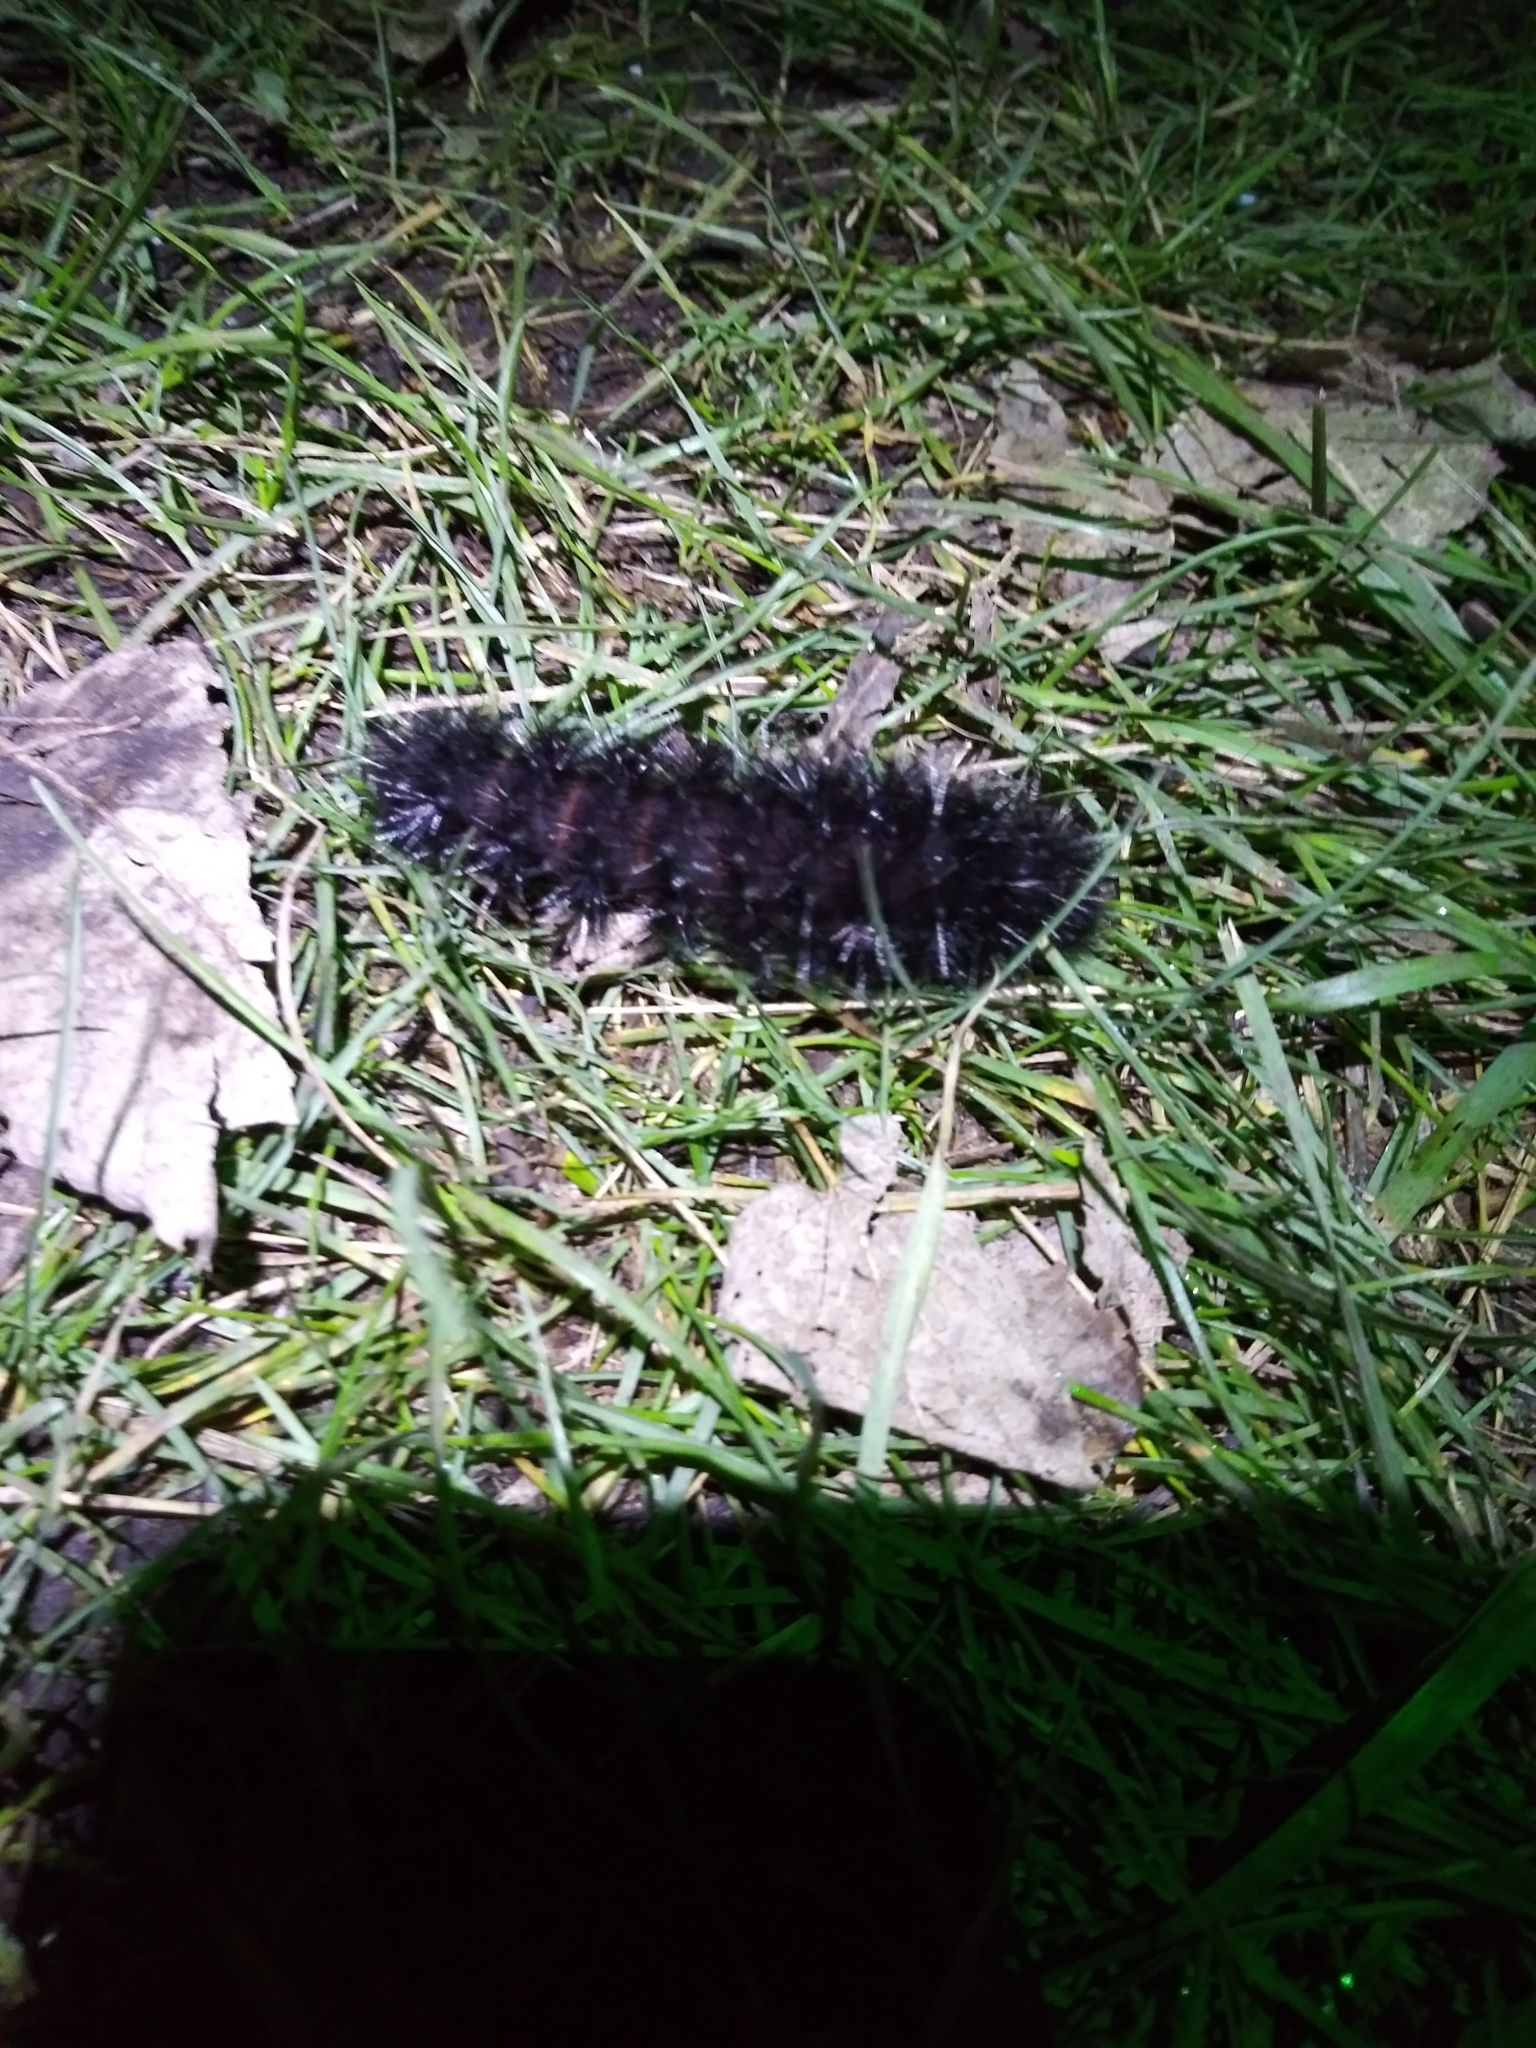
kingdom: Animalia
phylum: Arthropoda
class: Insecta
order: Lepidoptera
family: Erebidae
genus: Hypercompe
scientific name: Hypercompe scribonia
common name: Giant leopard moth
